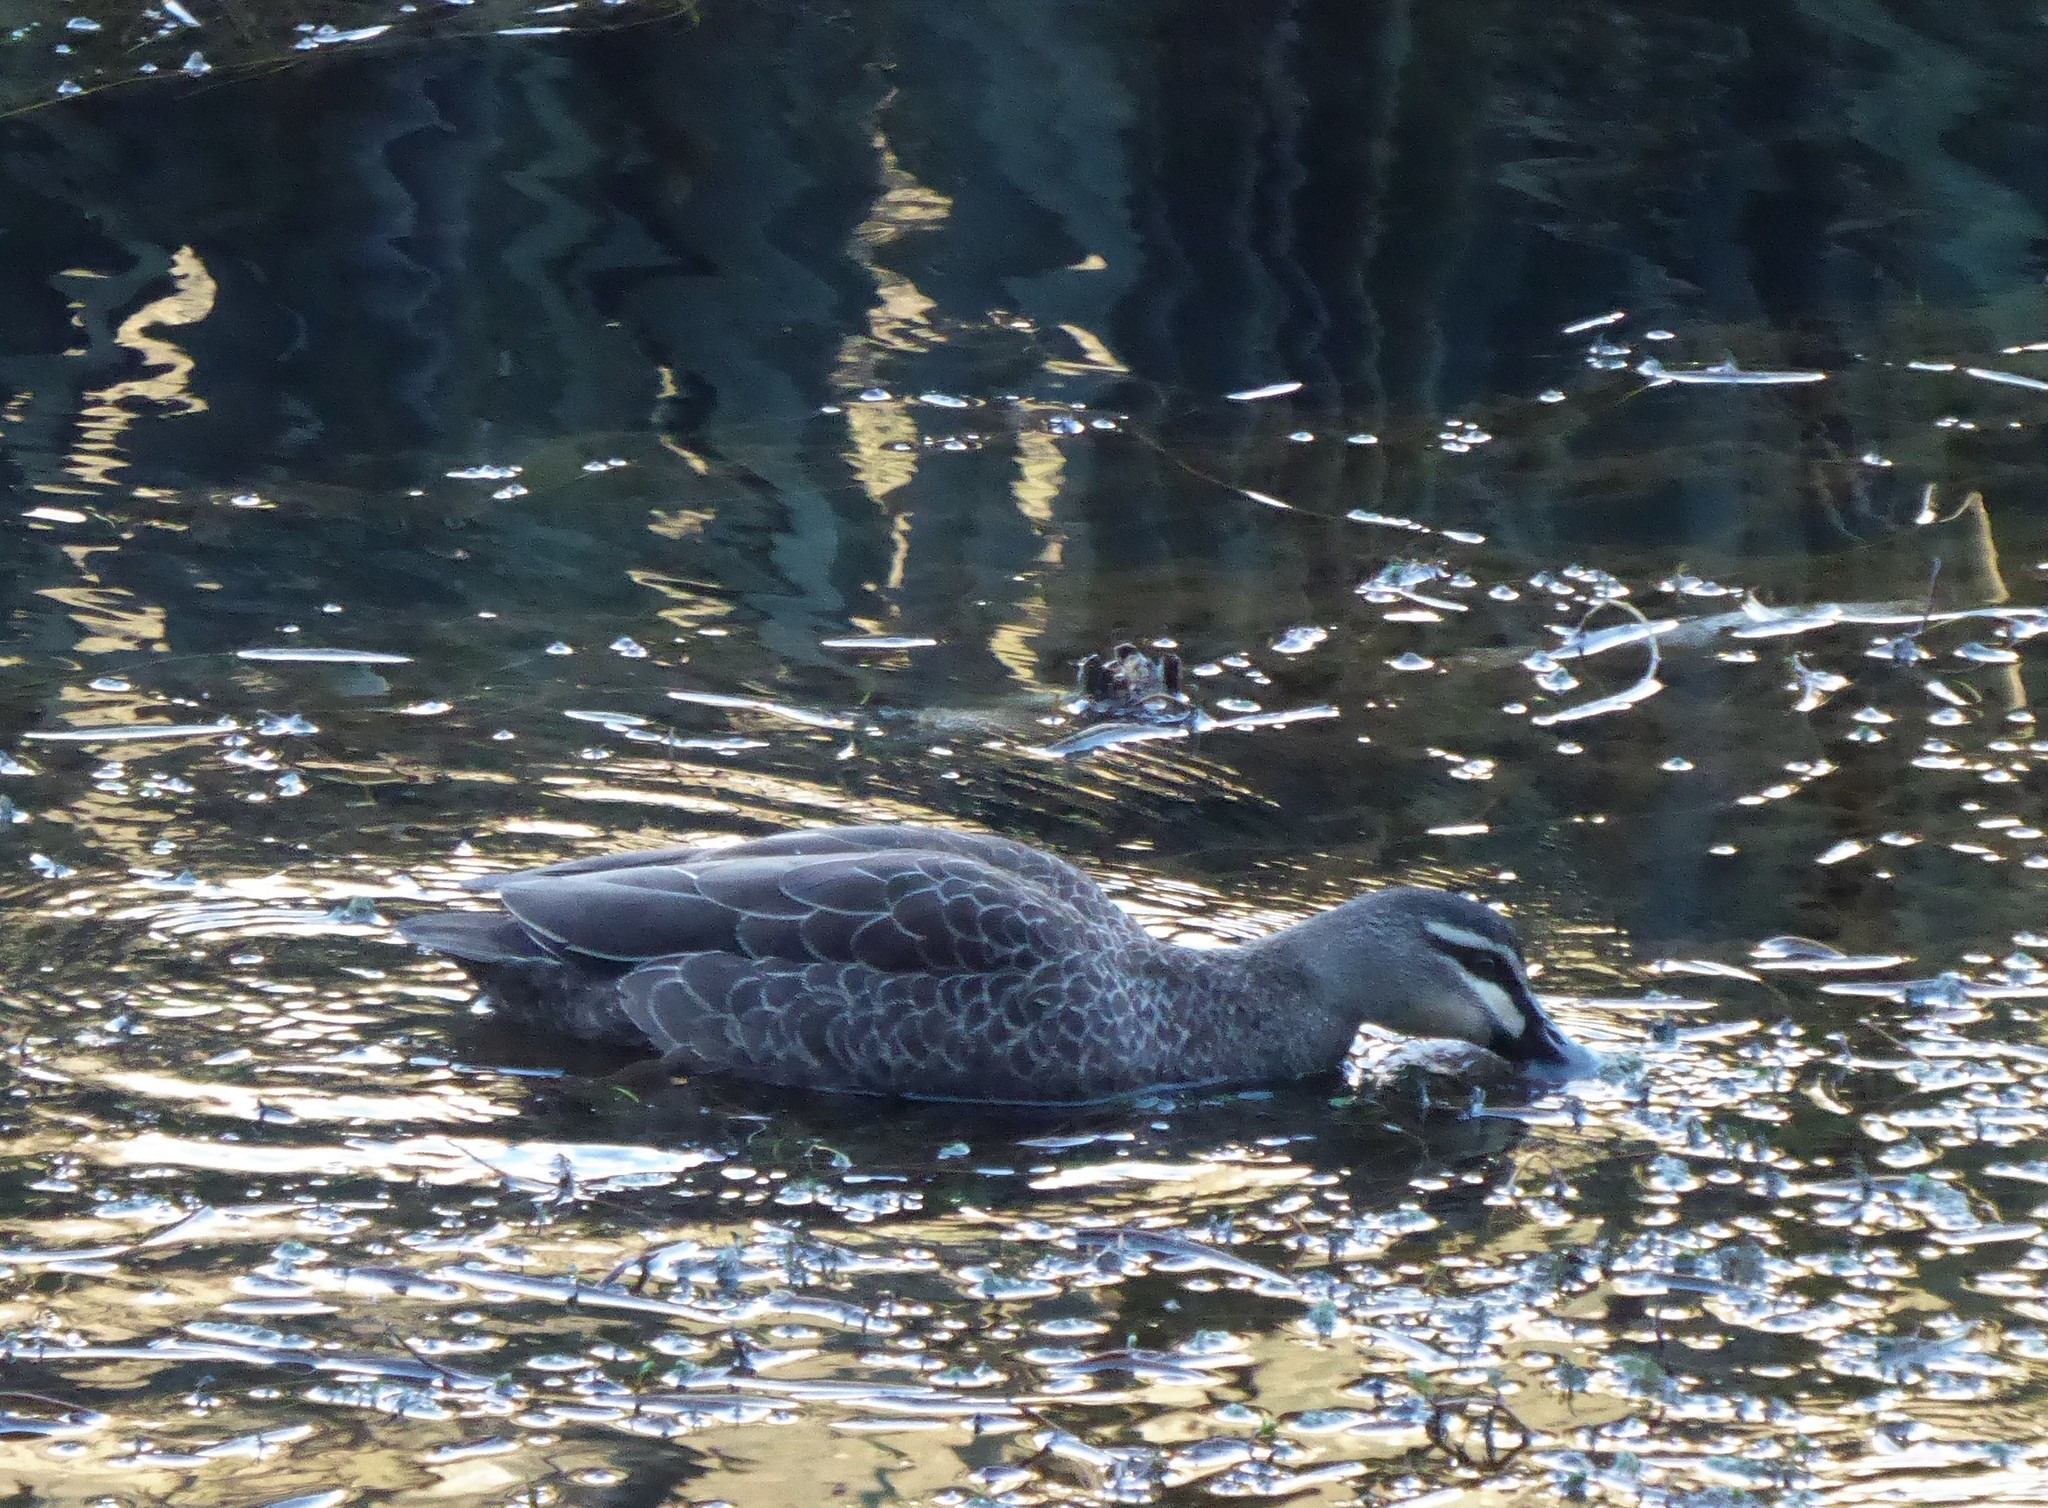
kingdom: Animalia
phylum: Chordata
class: Aves
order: Anseriformes
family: Anatidae
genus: Anas
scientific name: Anas superciliosa
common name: Pacific black duck
